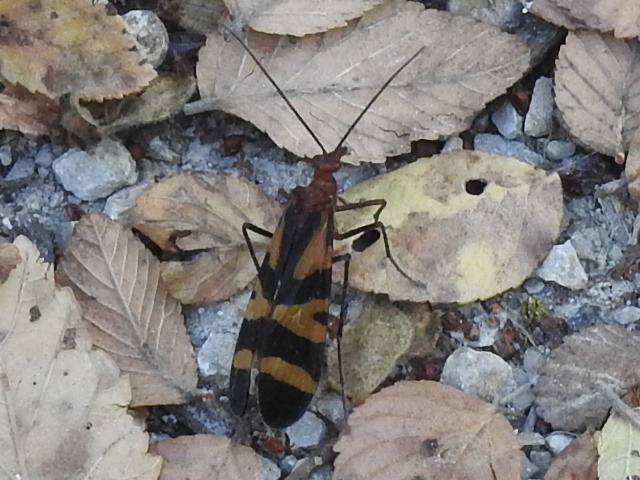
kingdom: Animalia
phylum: Arthropoda
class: Insecta
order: Mecoptera
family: Panorpidae
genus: Panorpa
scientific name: Panorpa nuptialis
